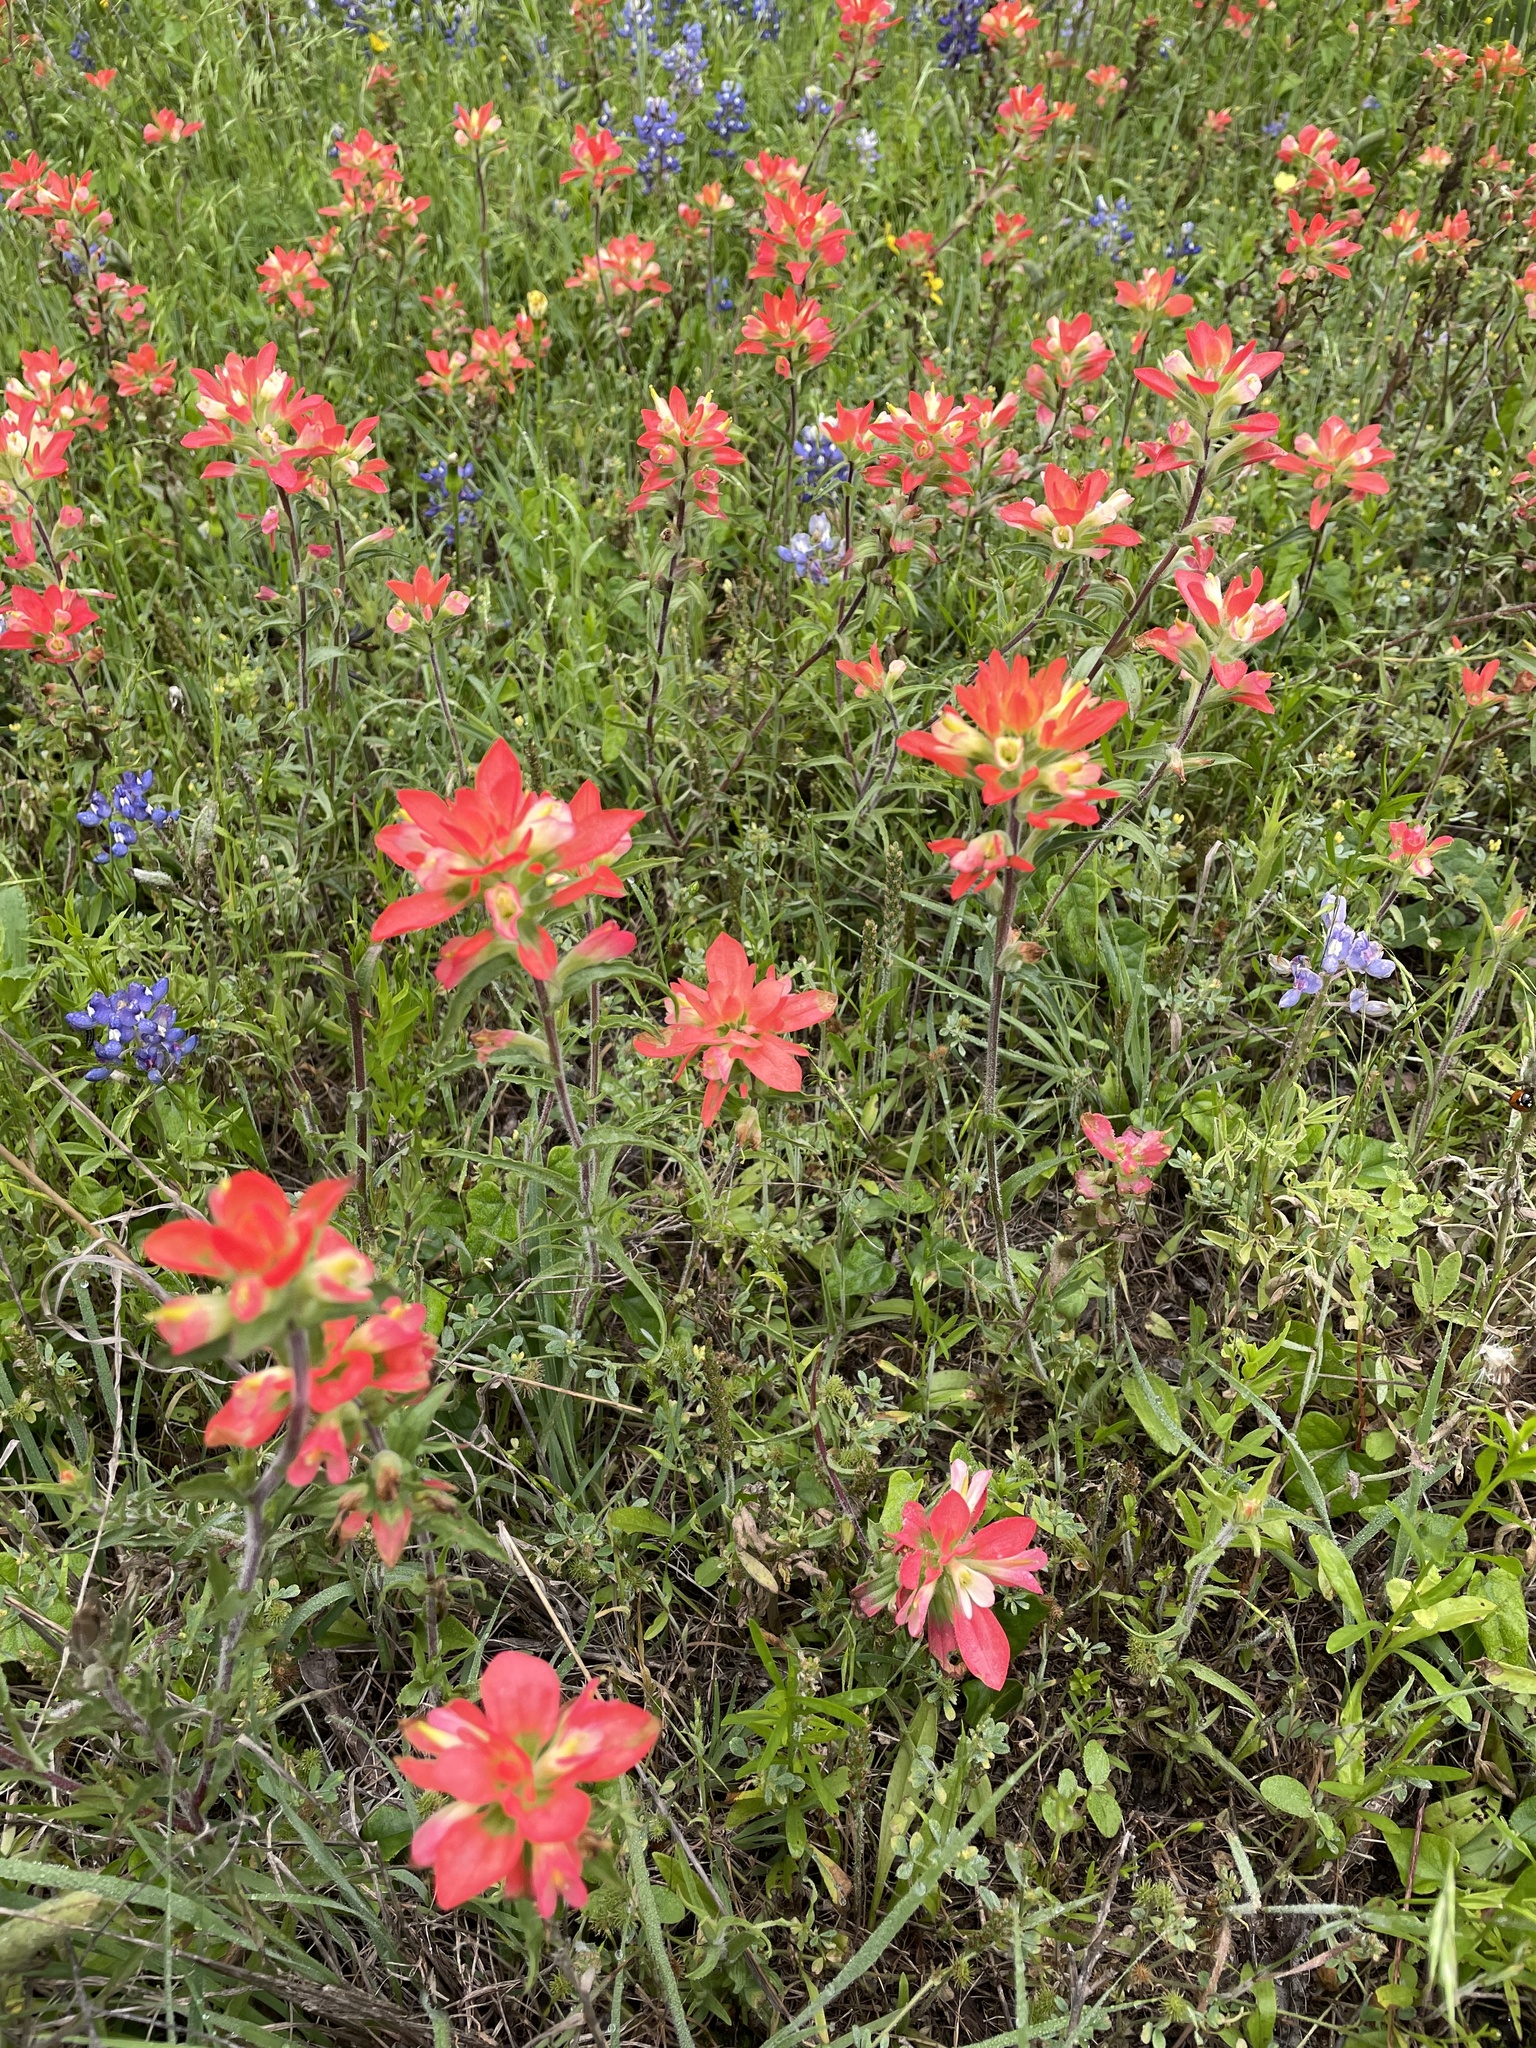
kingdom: Plantae
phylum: Tracheophyta
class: Magnoliopsida
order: Lamiales
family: Orobanchaceae
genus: Castilleja
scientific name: Castilleja indivisa
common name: Texas paintbrush
